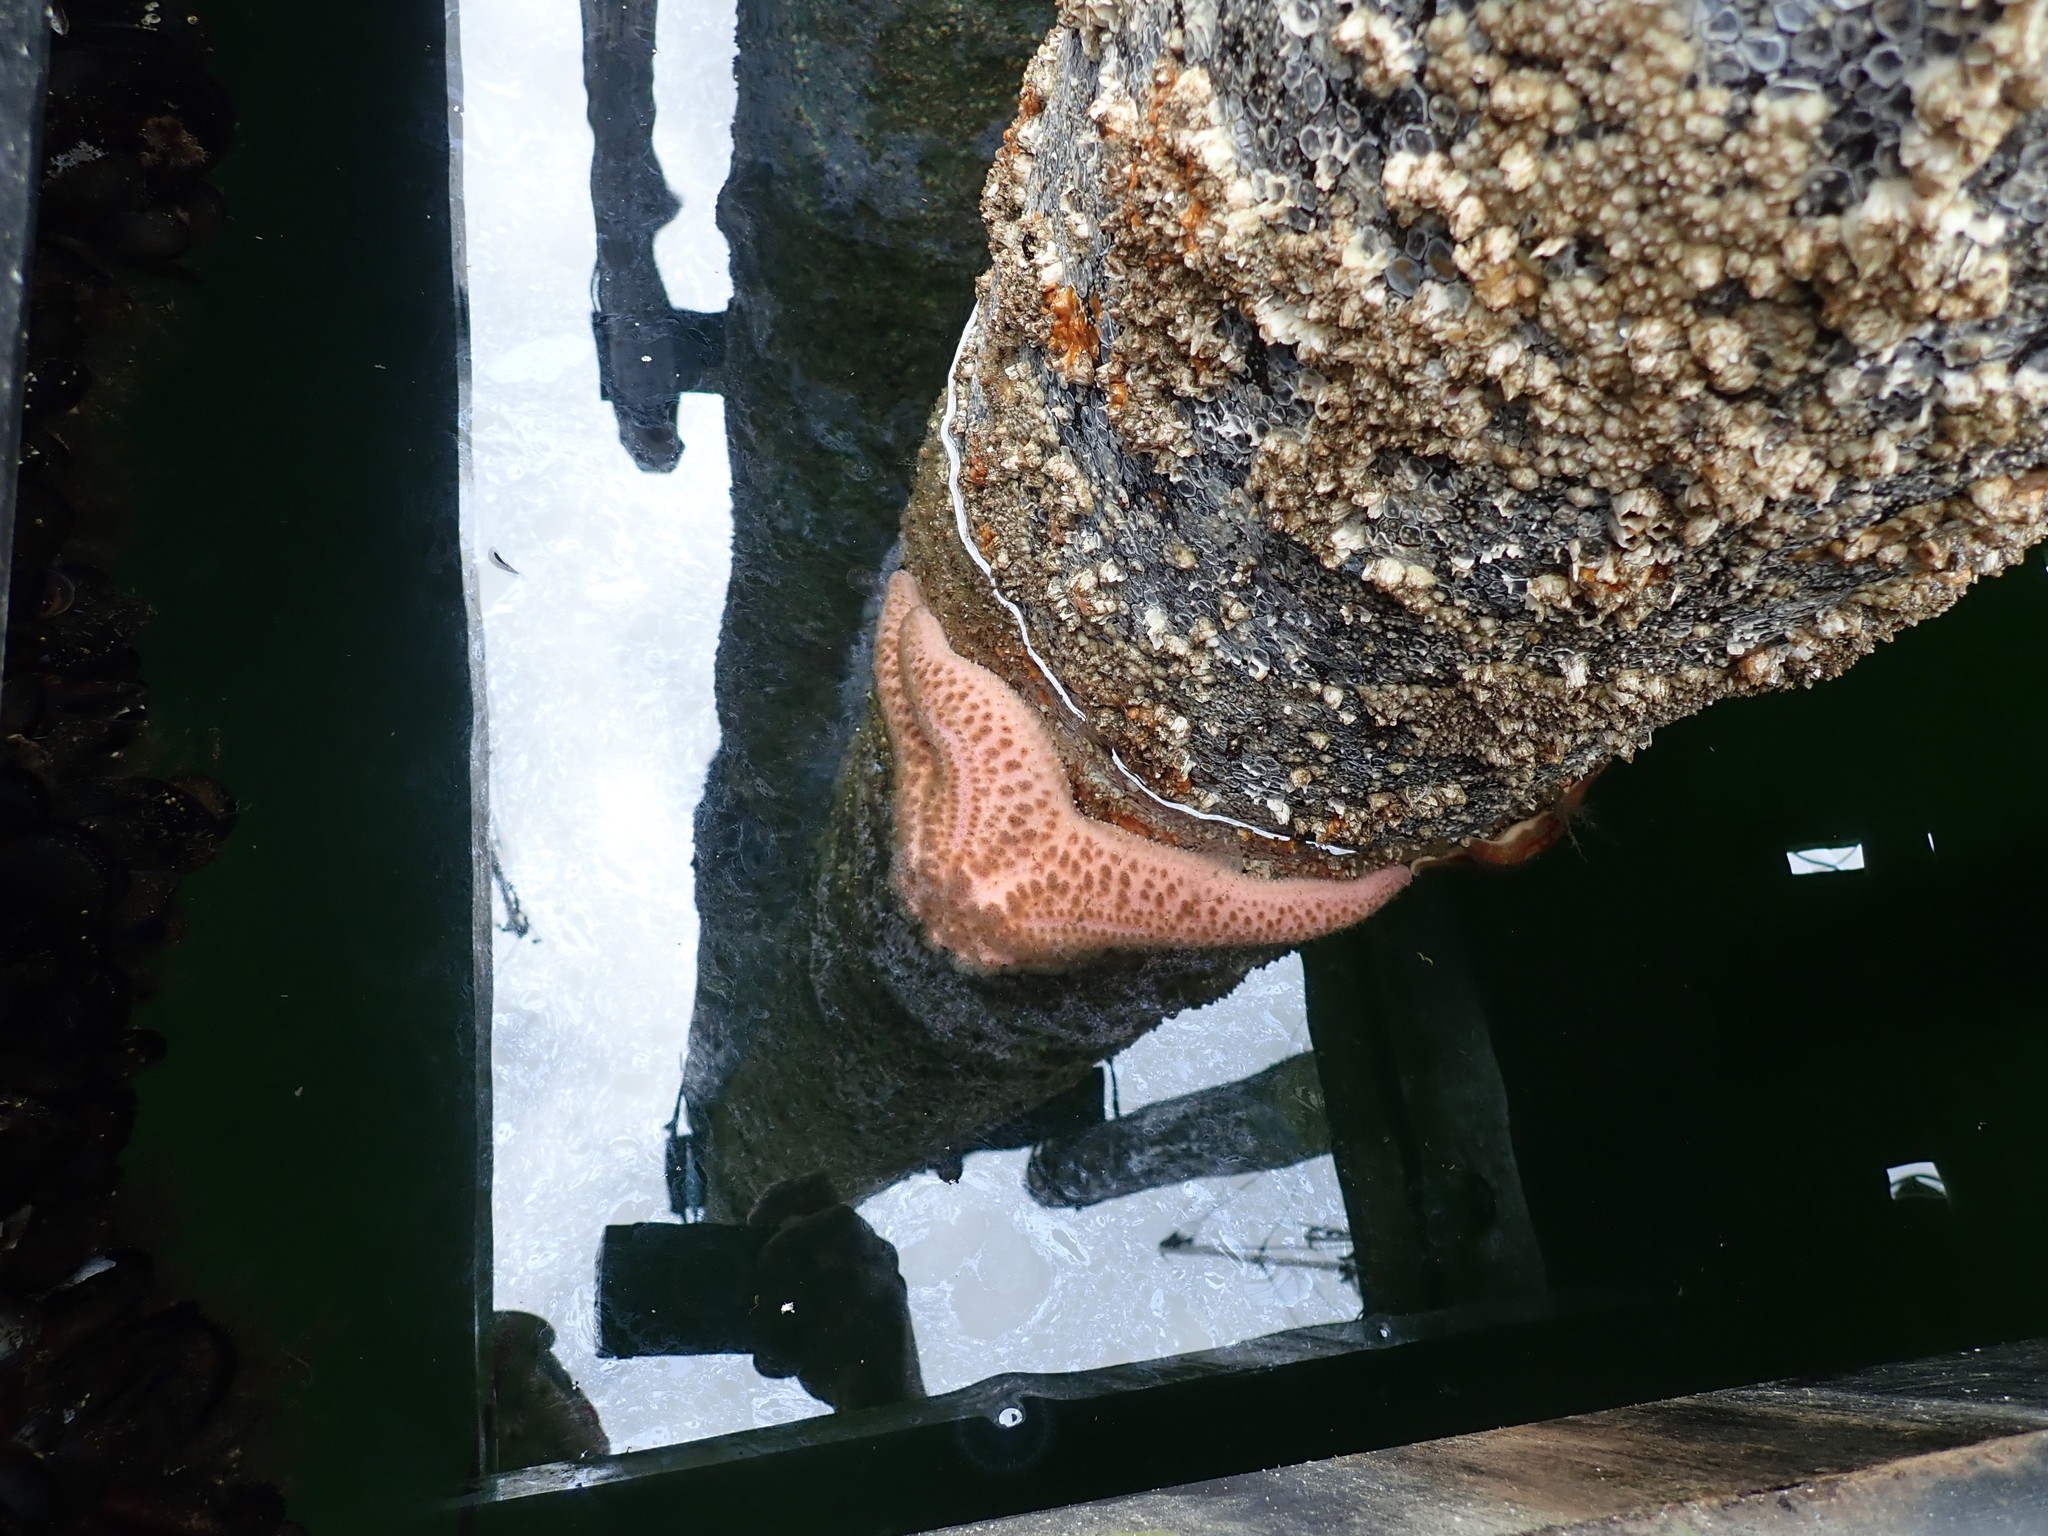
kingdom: Animalia
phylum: Echinodermata
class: Asteroidea
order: Forcipulatida
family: Asteriidae
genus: Pisaster
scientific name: Pisaster brevispinus
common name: Pink stars
